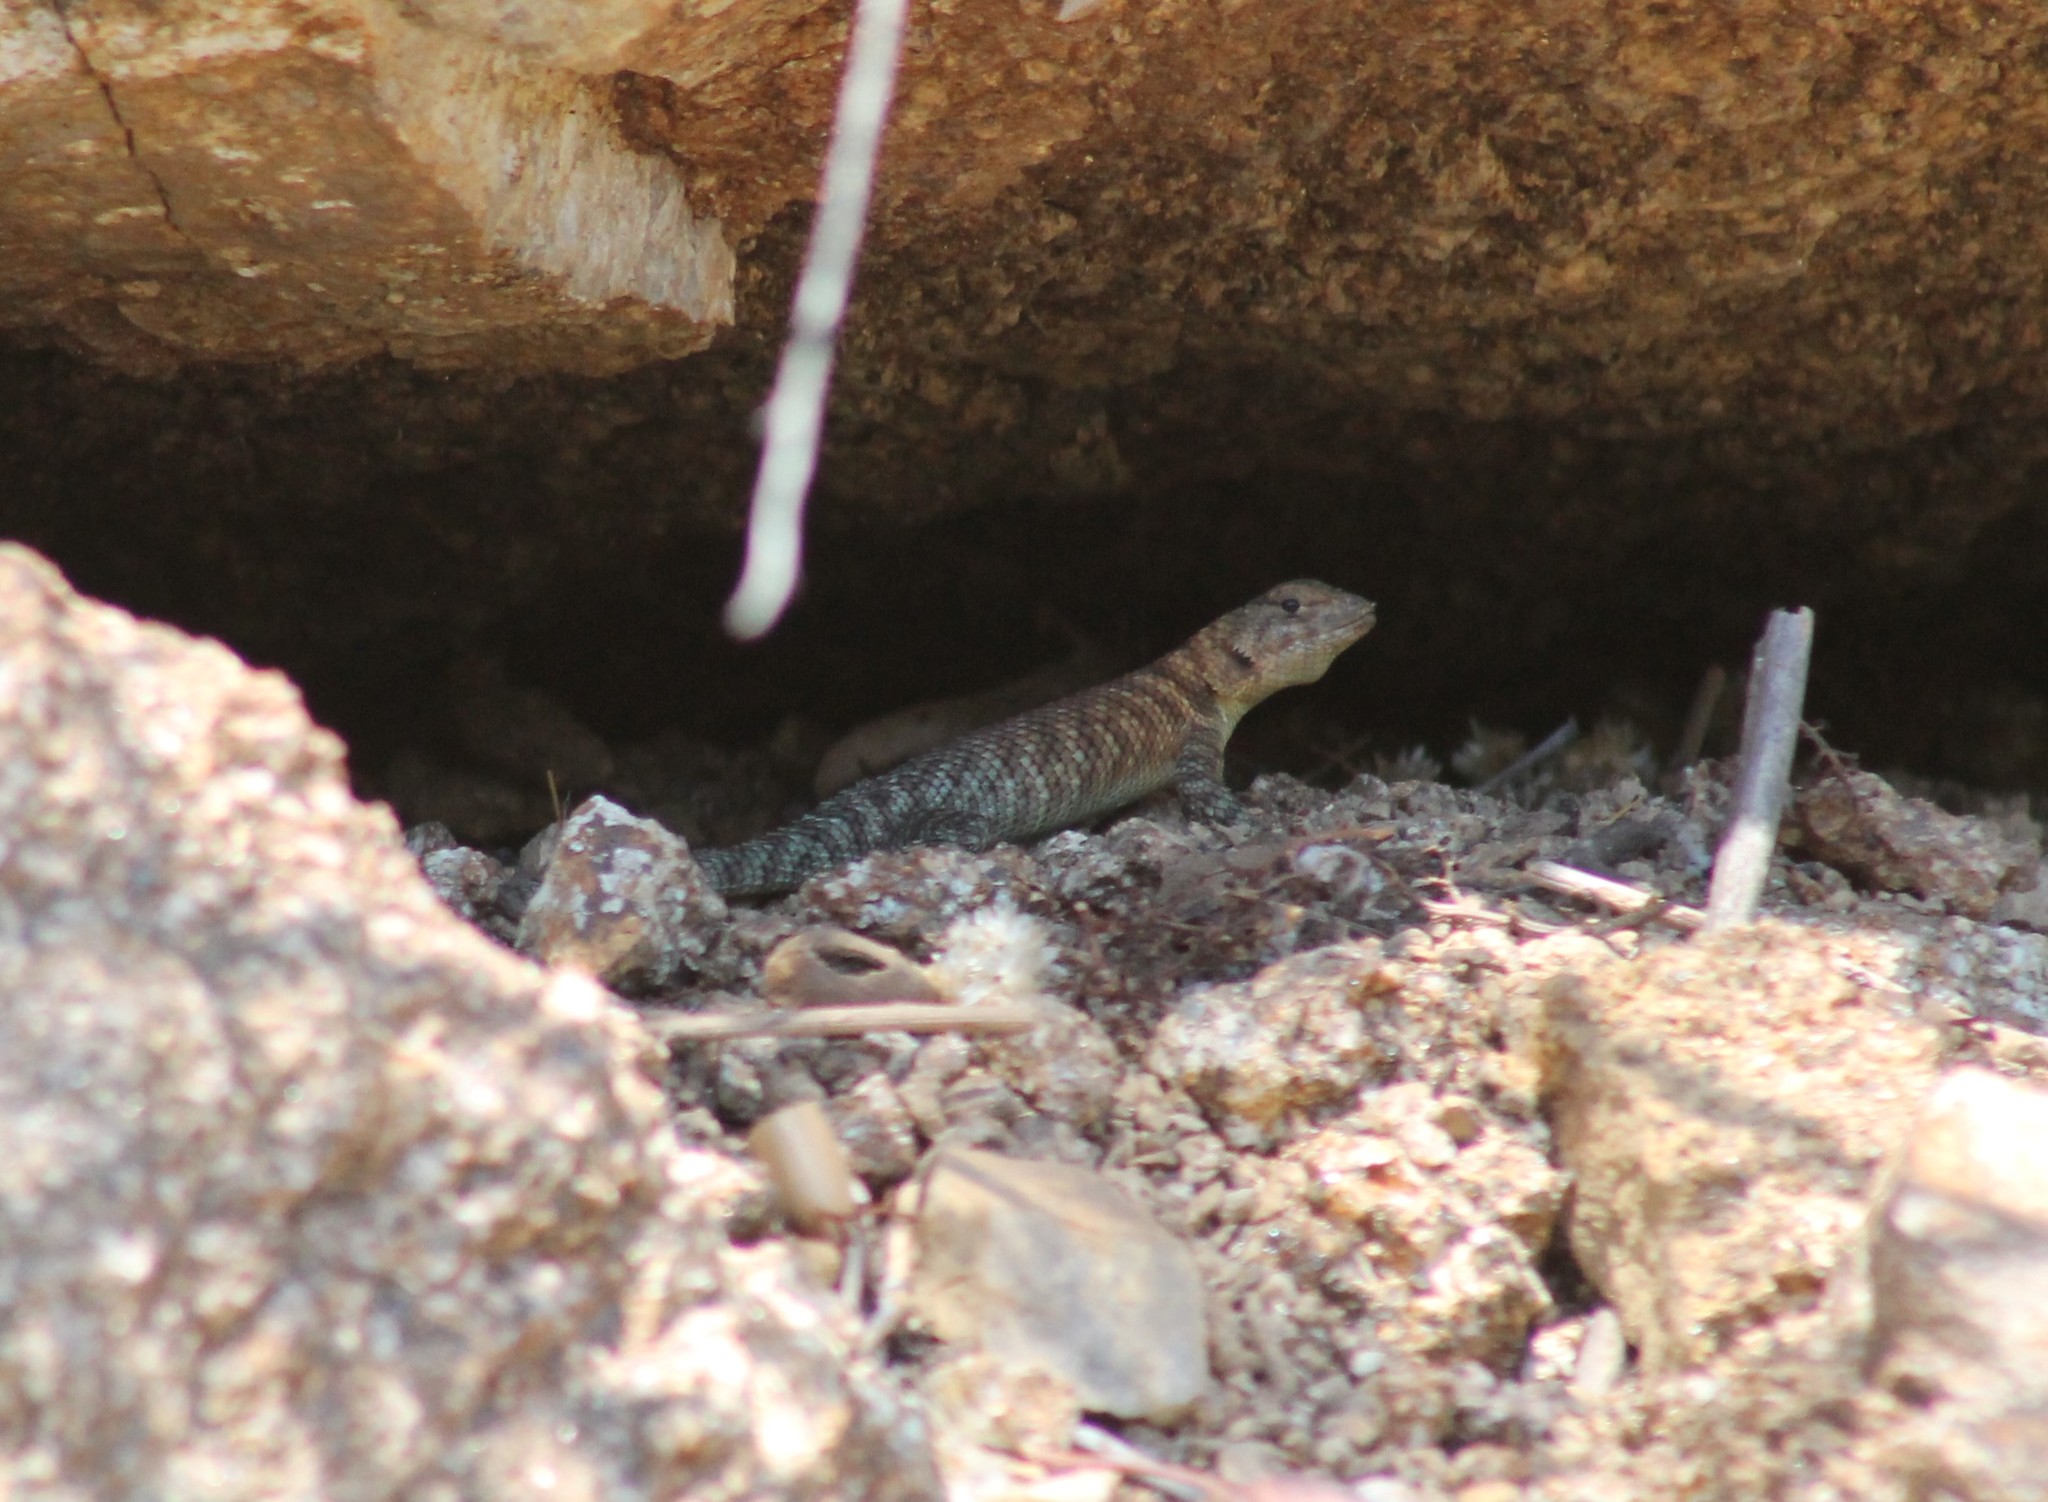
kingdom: Animalia
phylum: Chordata
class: Squamata
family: Phrynosomatidae
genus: Sceloporus
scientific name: Sceloporus orcutti
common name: Granite spiny lizard
